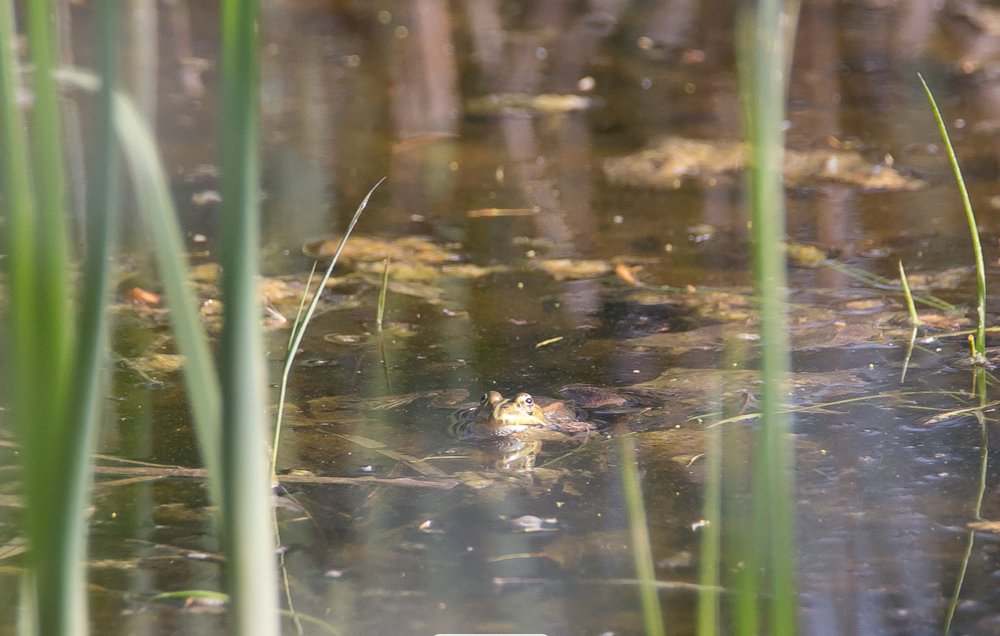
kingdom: Animalia
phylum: Chordata
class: Amphibia
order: Anura
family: Ranidae
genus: Pelophylax
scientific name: Pelophylax
